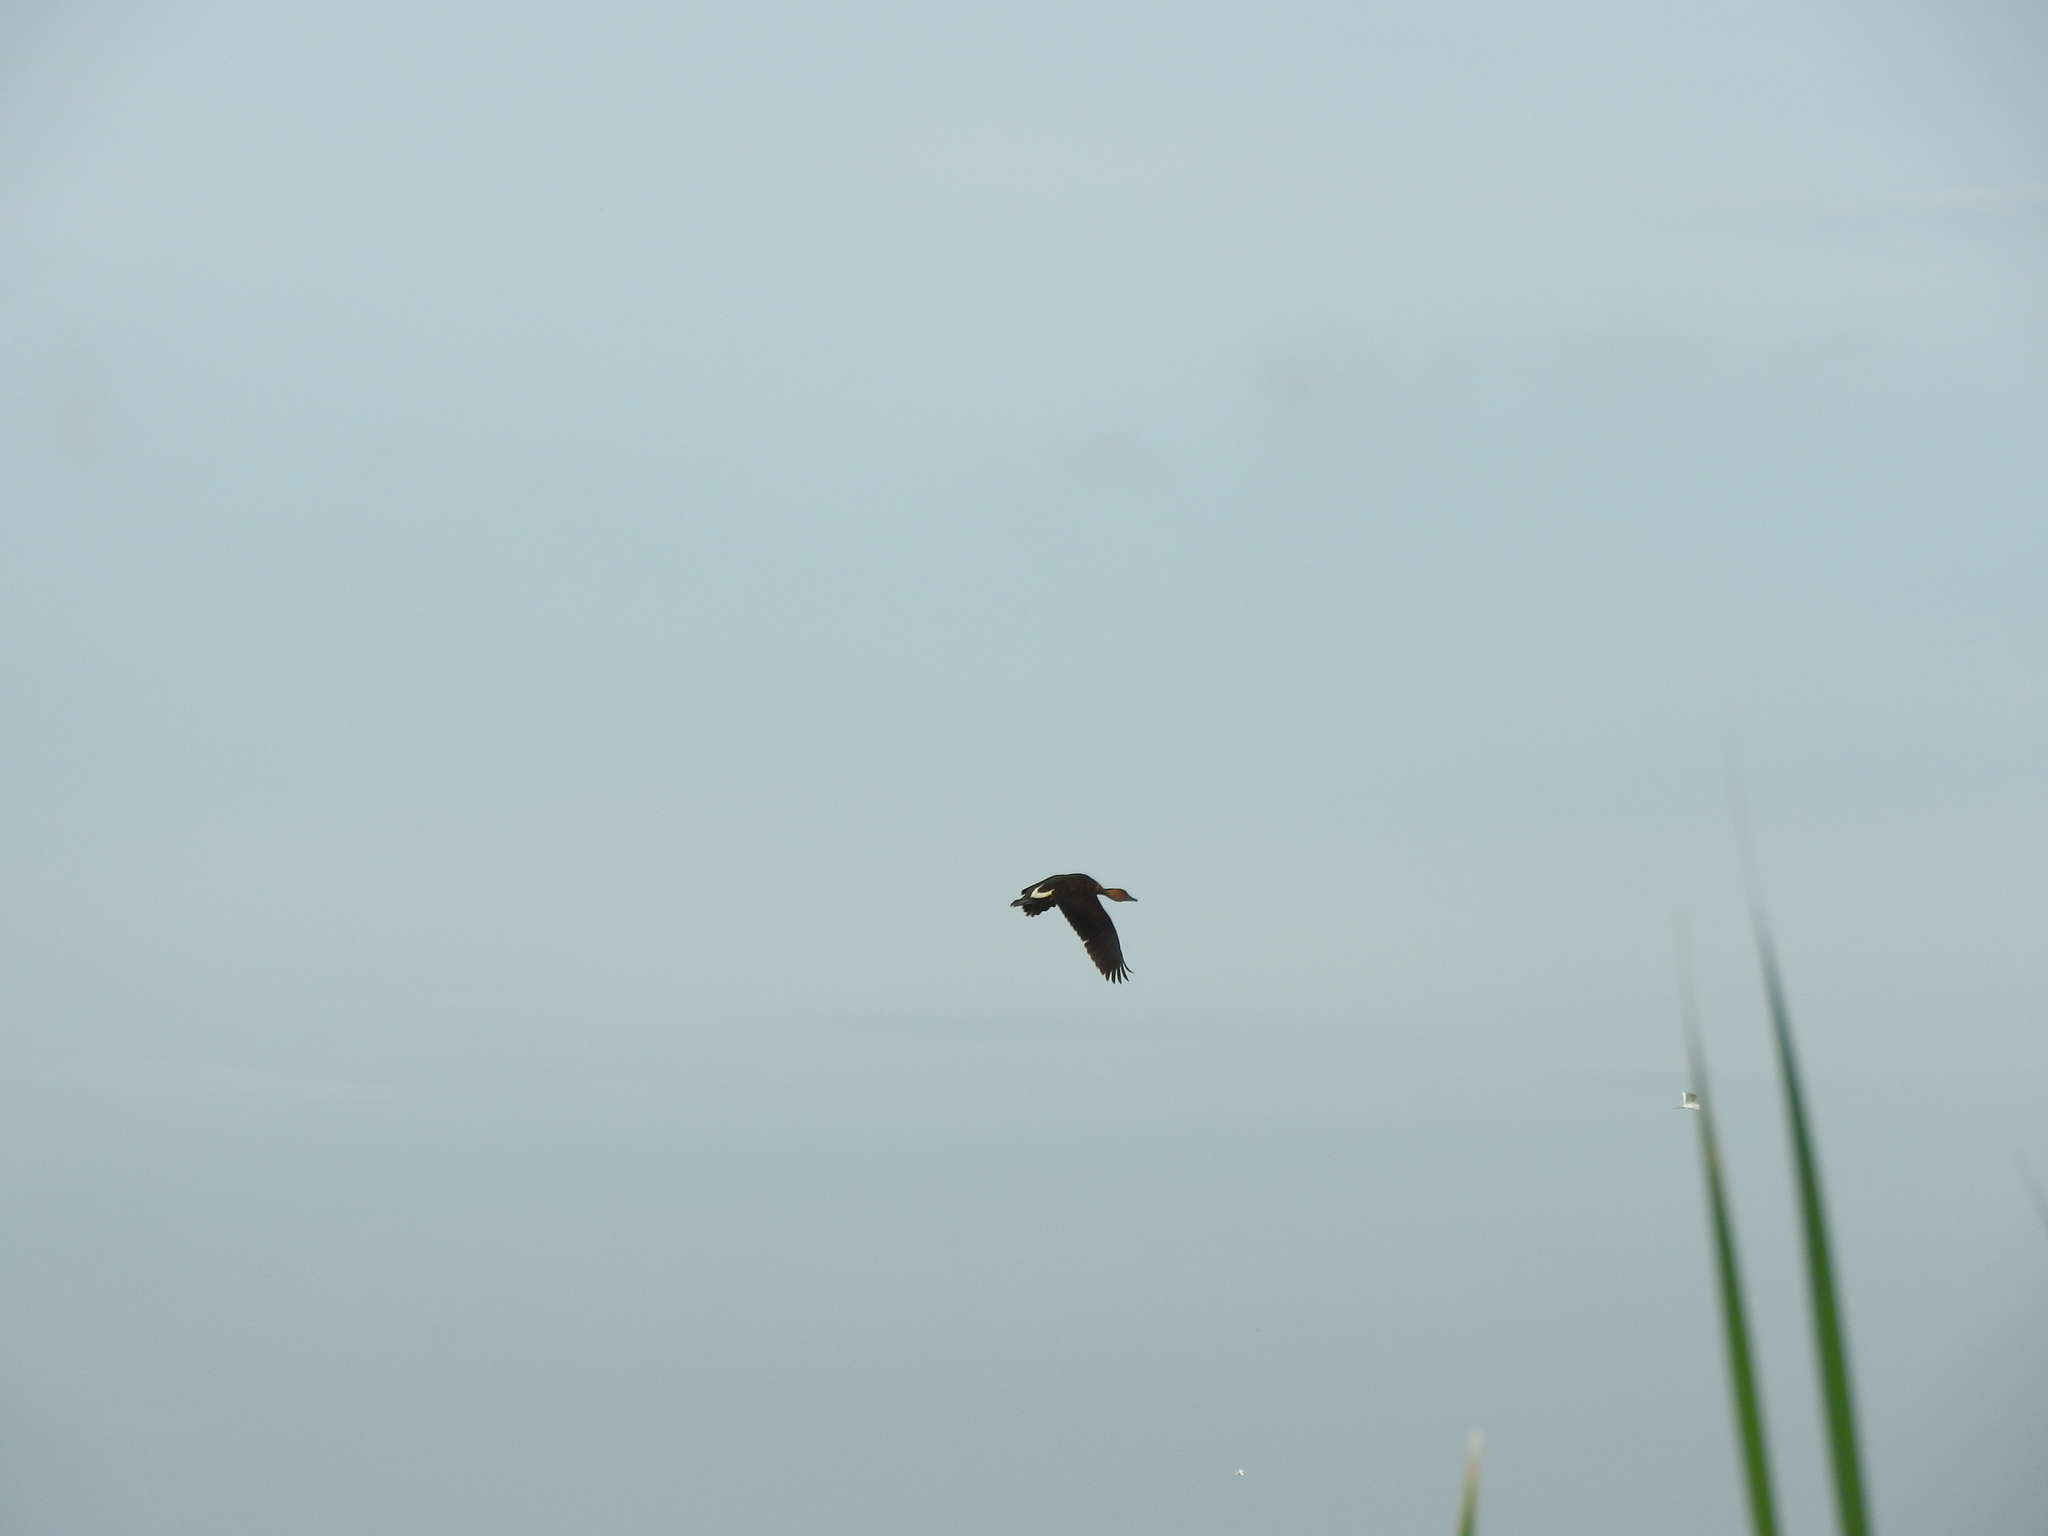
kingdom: Animalia
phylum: Chordata
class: Aves
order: Anseriformes
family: Anatidae
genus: Dendrocygna
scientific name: Dendrocygna bicolor
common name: Fulvous whistling duck
